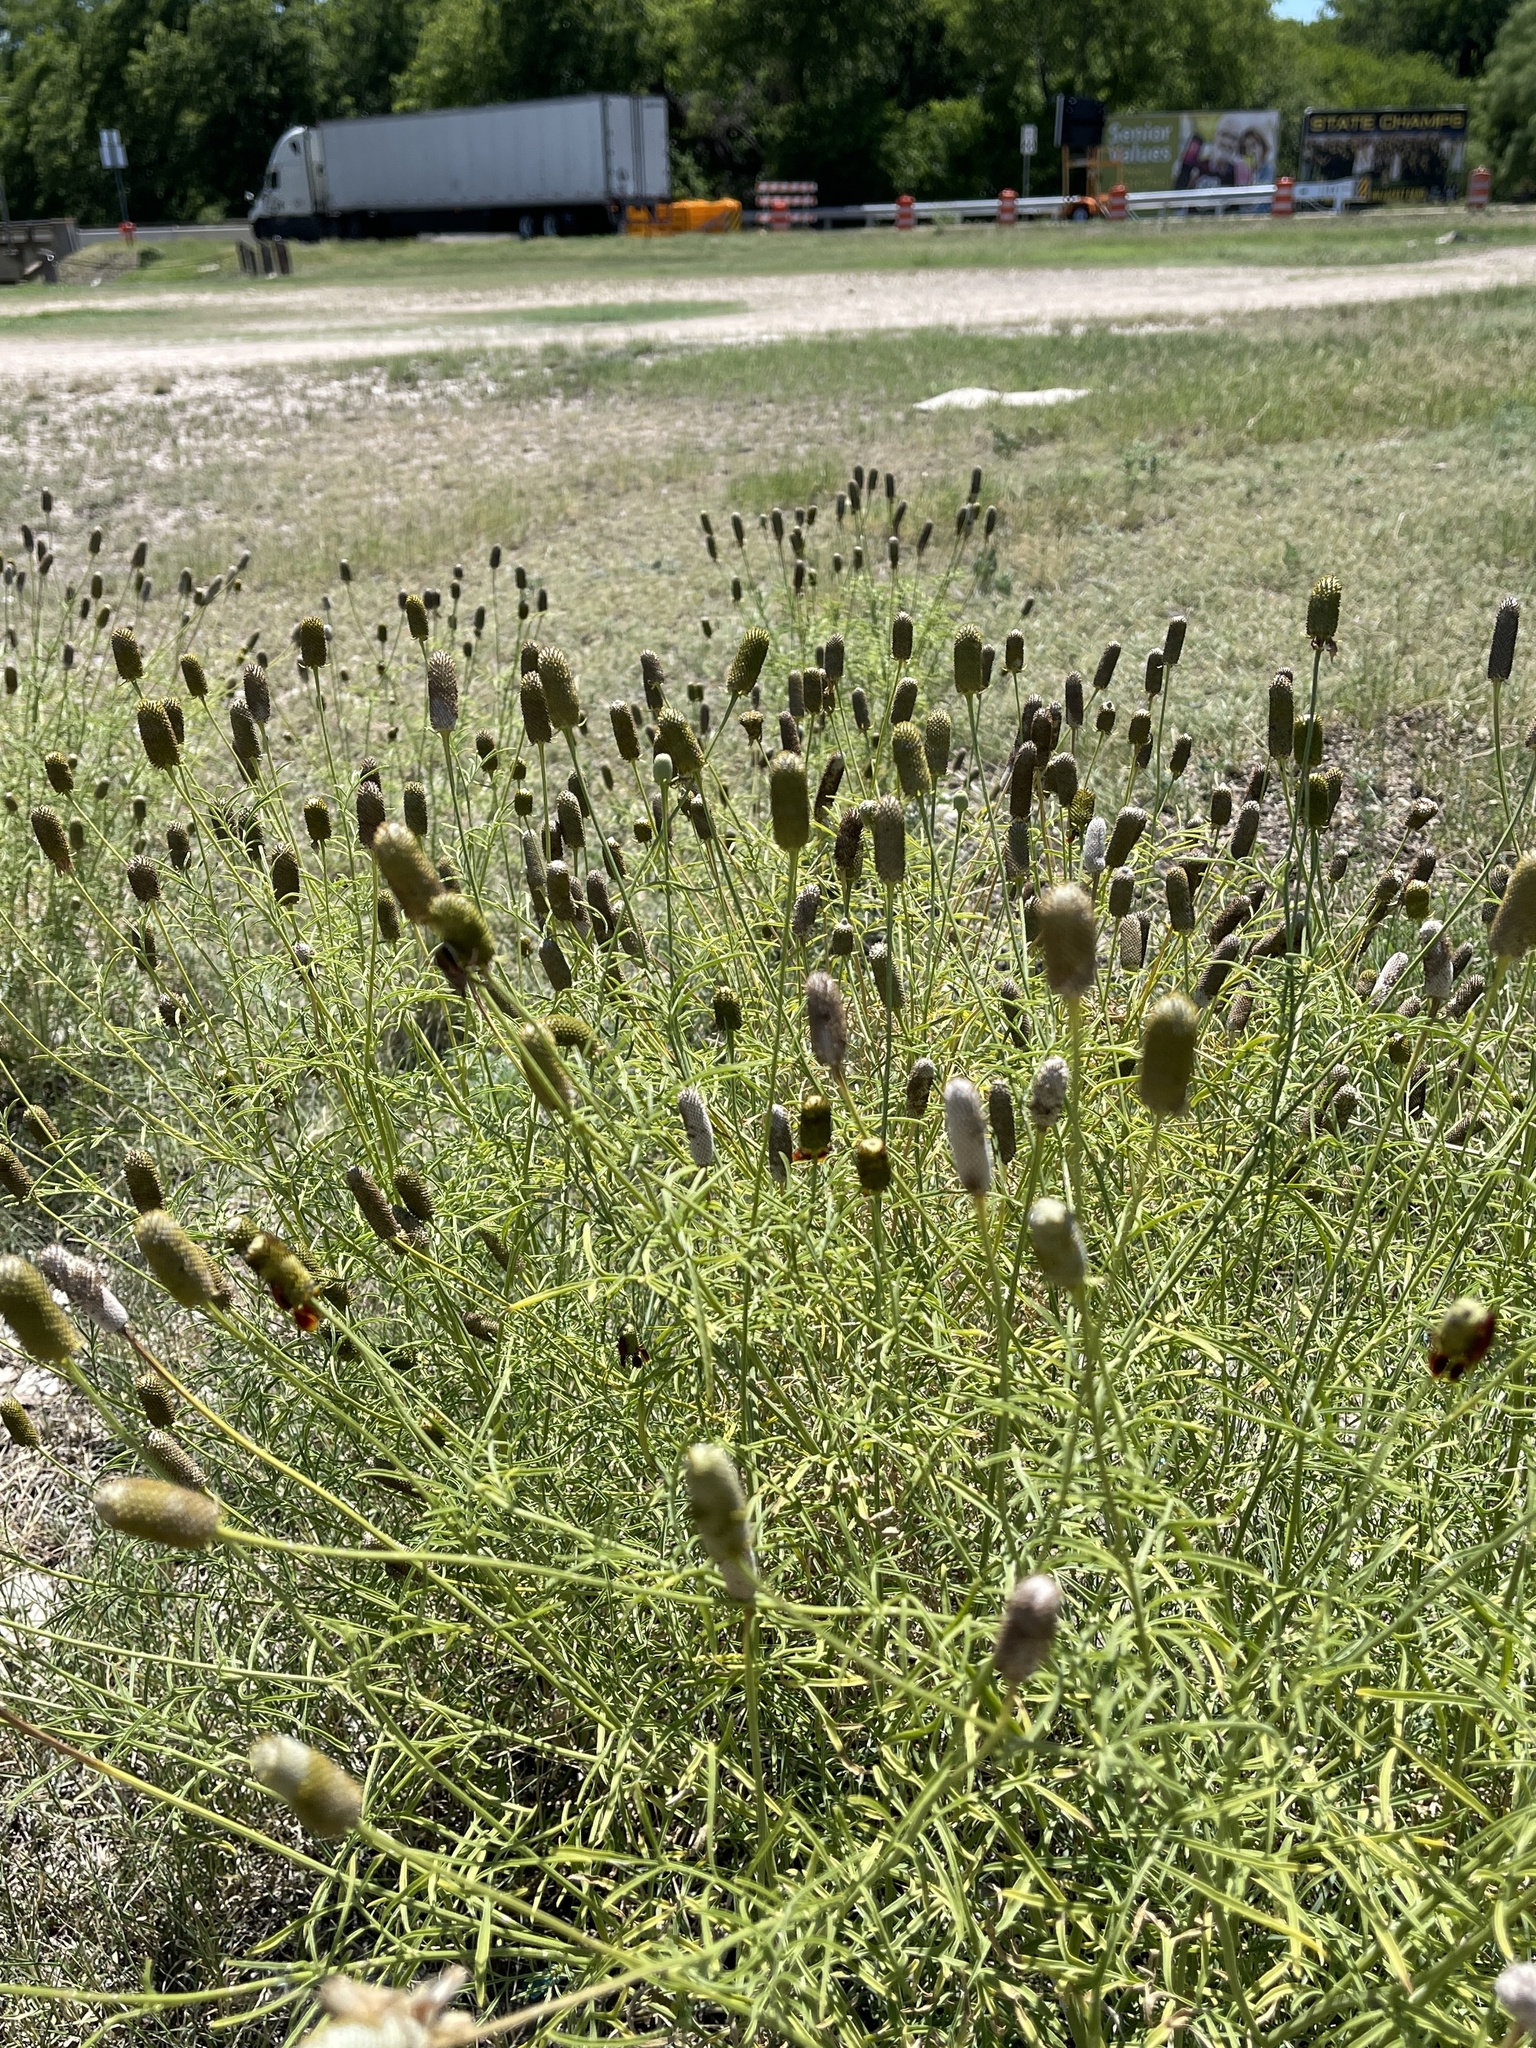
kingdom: Plantae
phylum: Tracheophyta
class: Magnoliopsida
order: Asterales
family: Asteraceae
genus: Ratibida
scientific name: Ratibida columnifera
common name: Prairie coneflower
